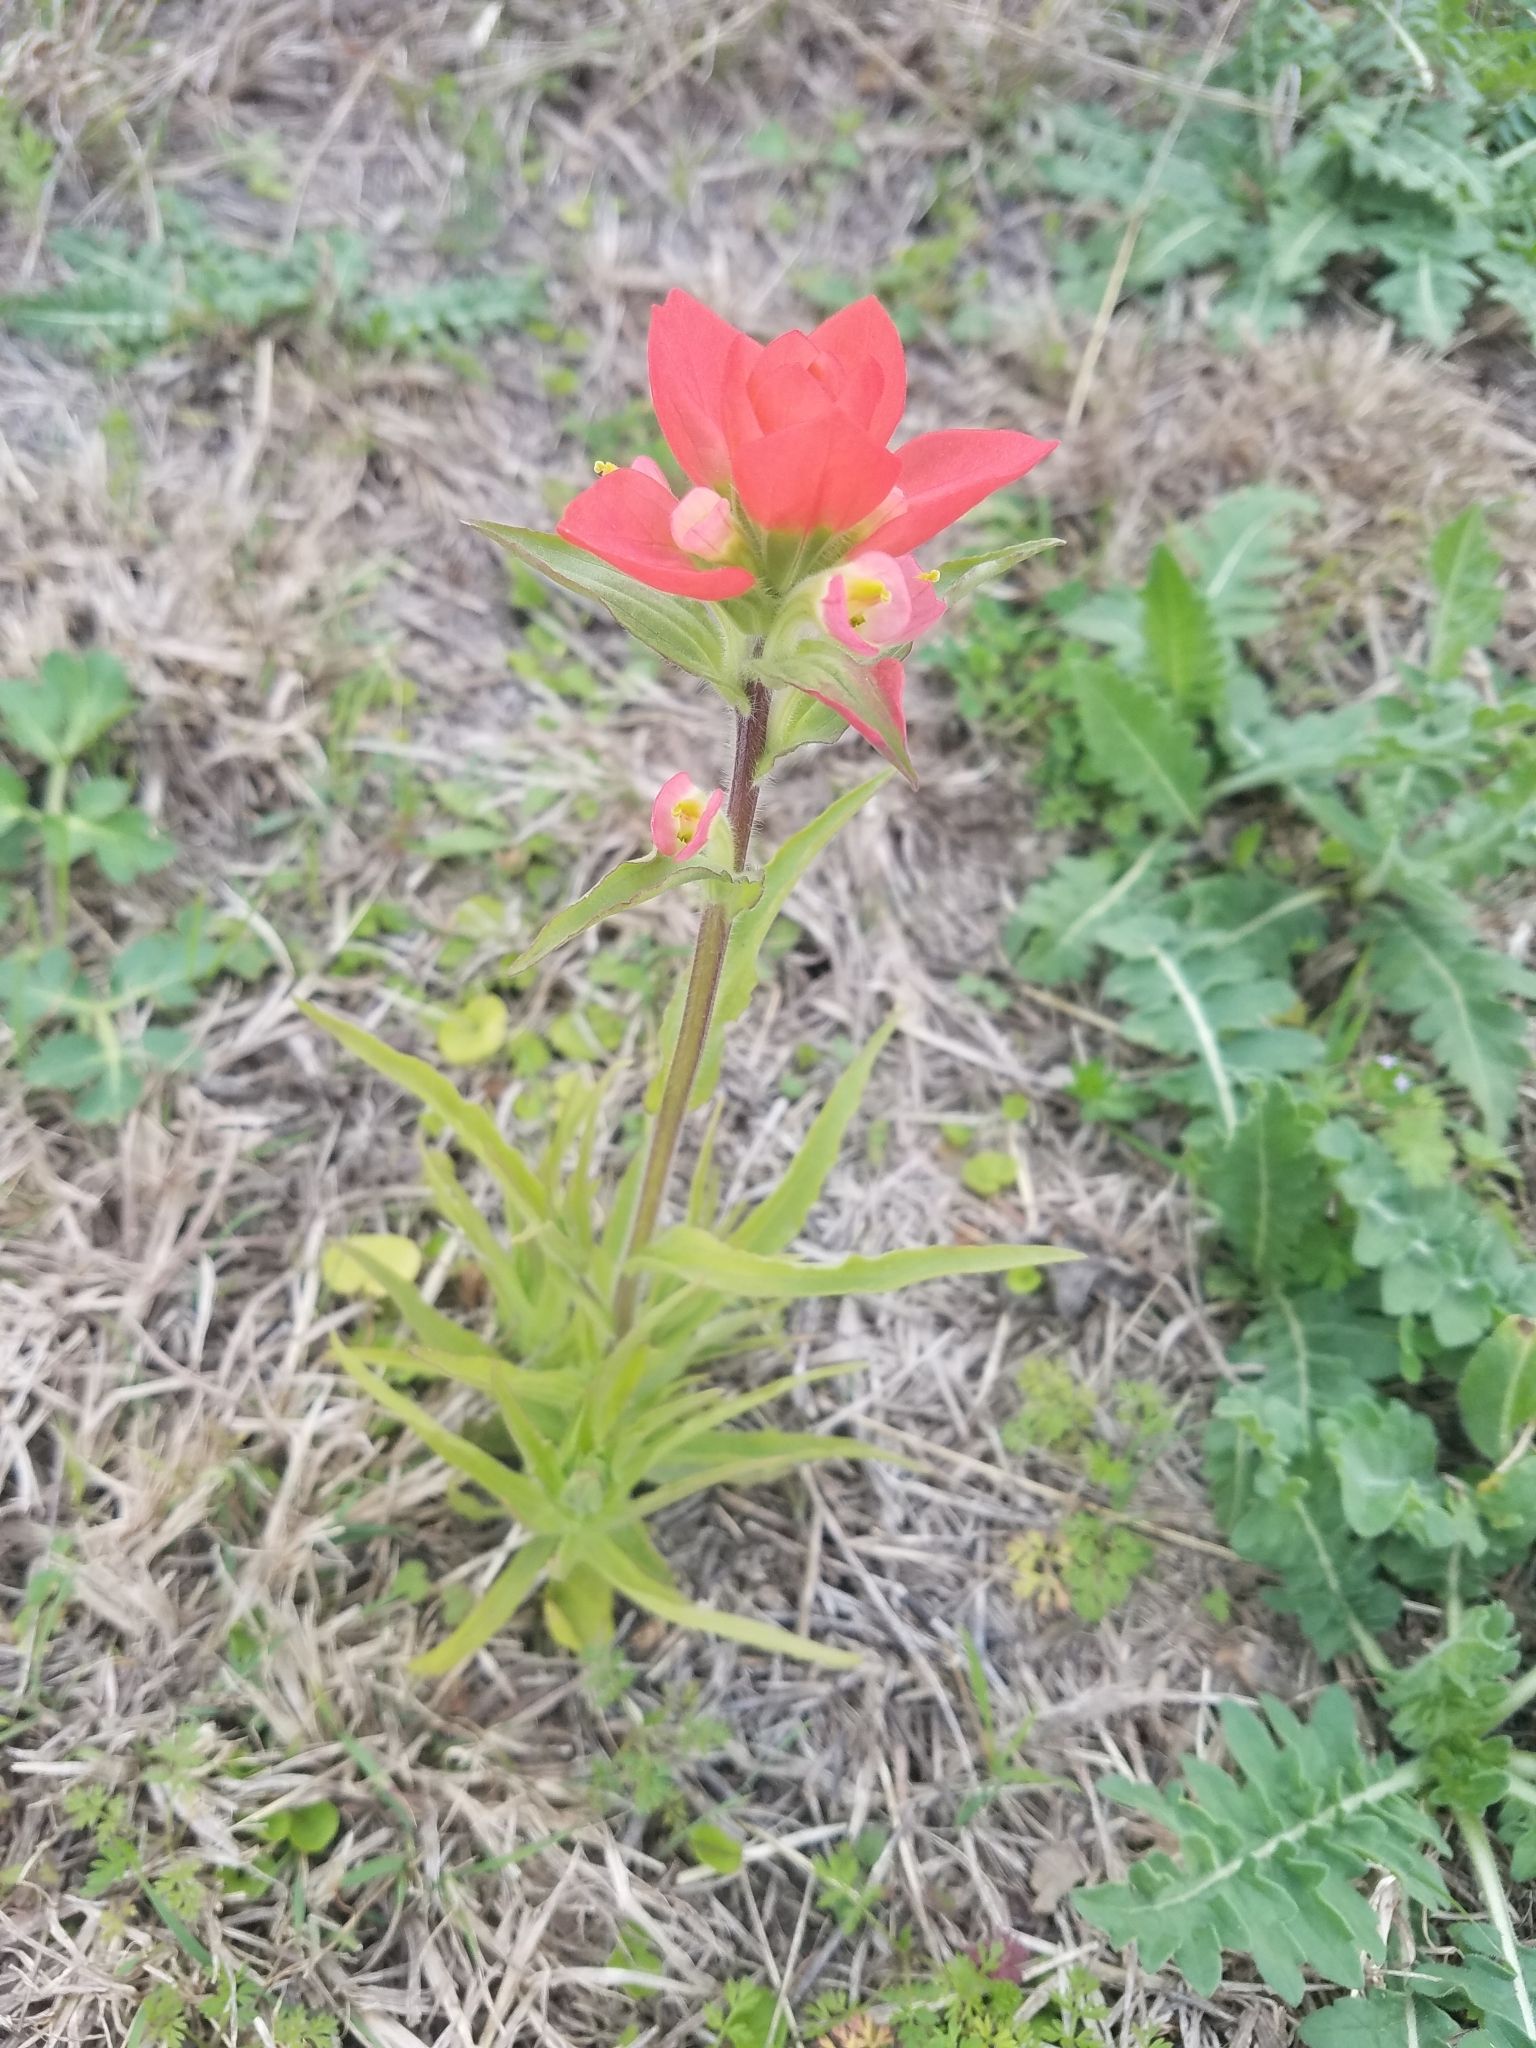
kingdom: Plantae
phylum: Tracheophyta
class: Magnoliopsida
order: Lamiales
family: Orobanchaceae
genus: Castilleja
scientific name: Castilleja indivisa
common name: Texas paintbrush
